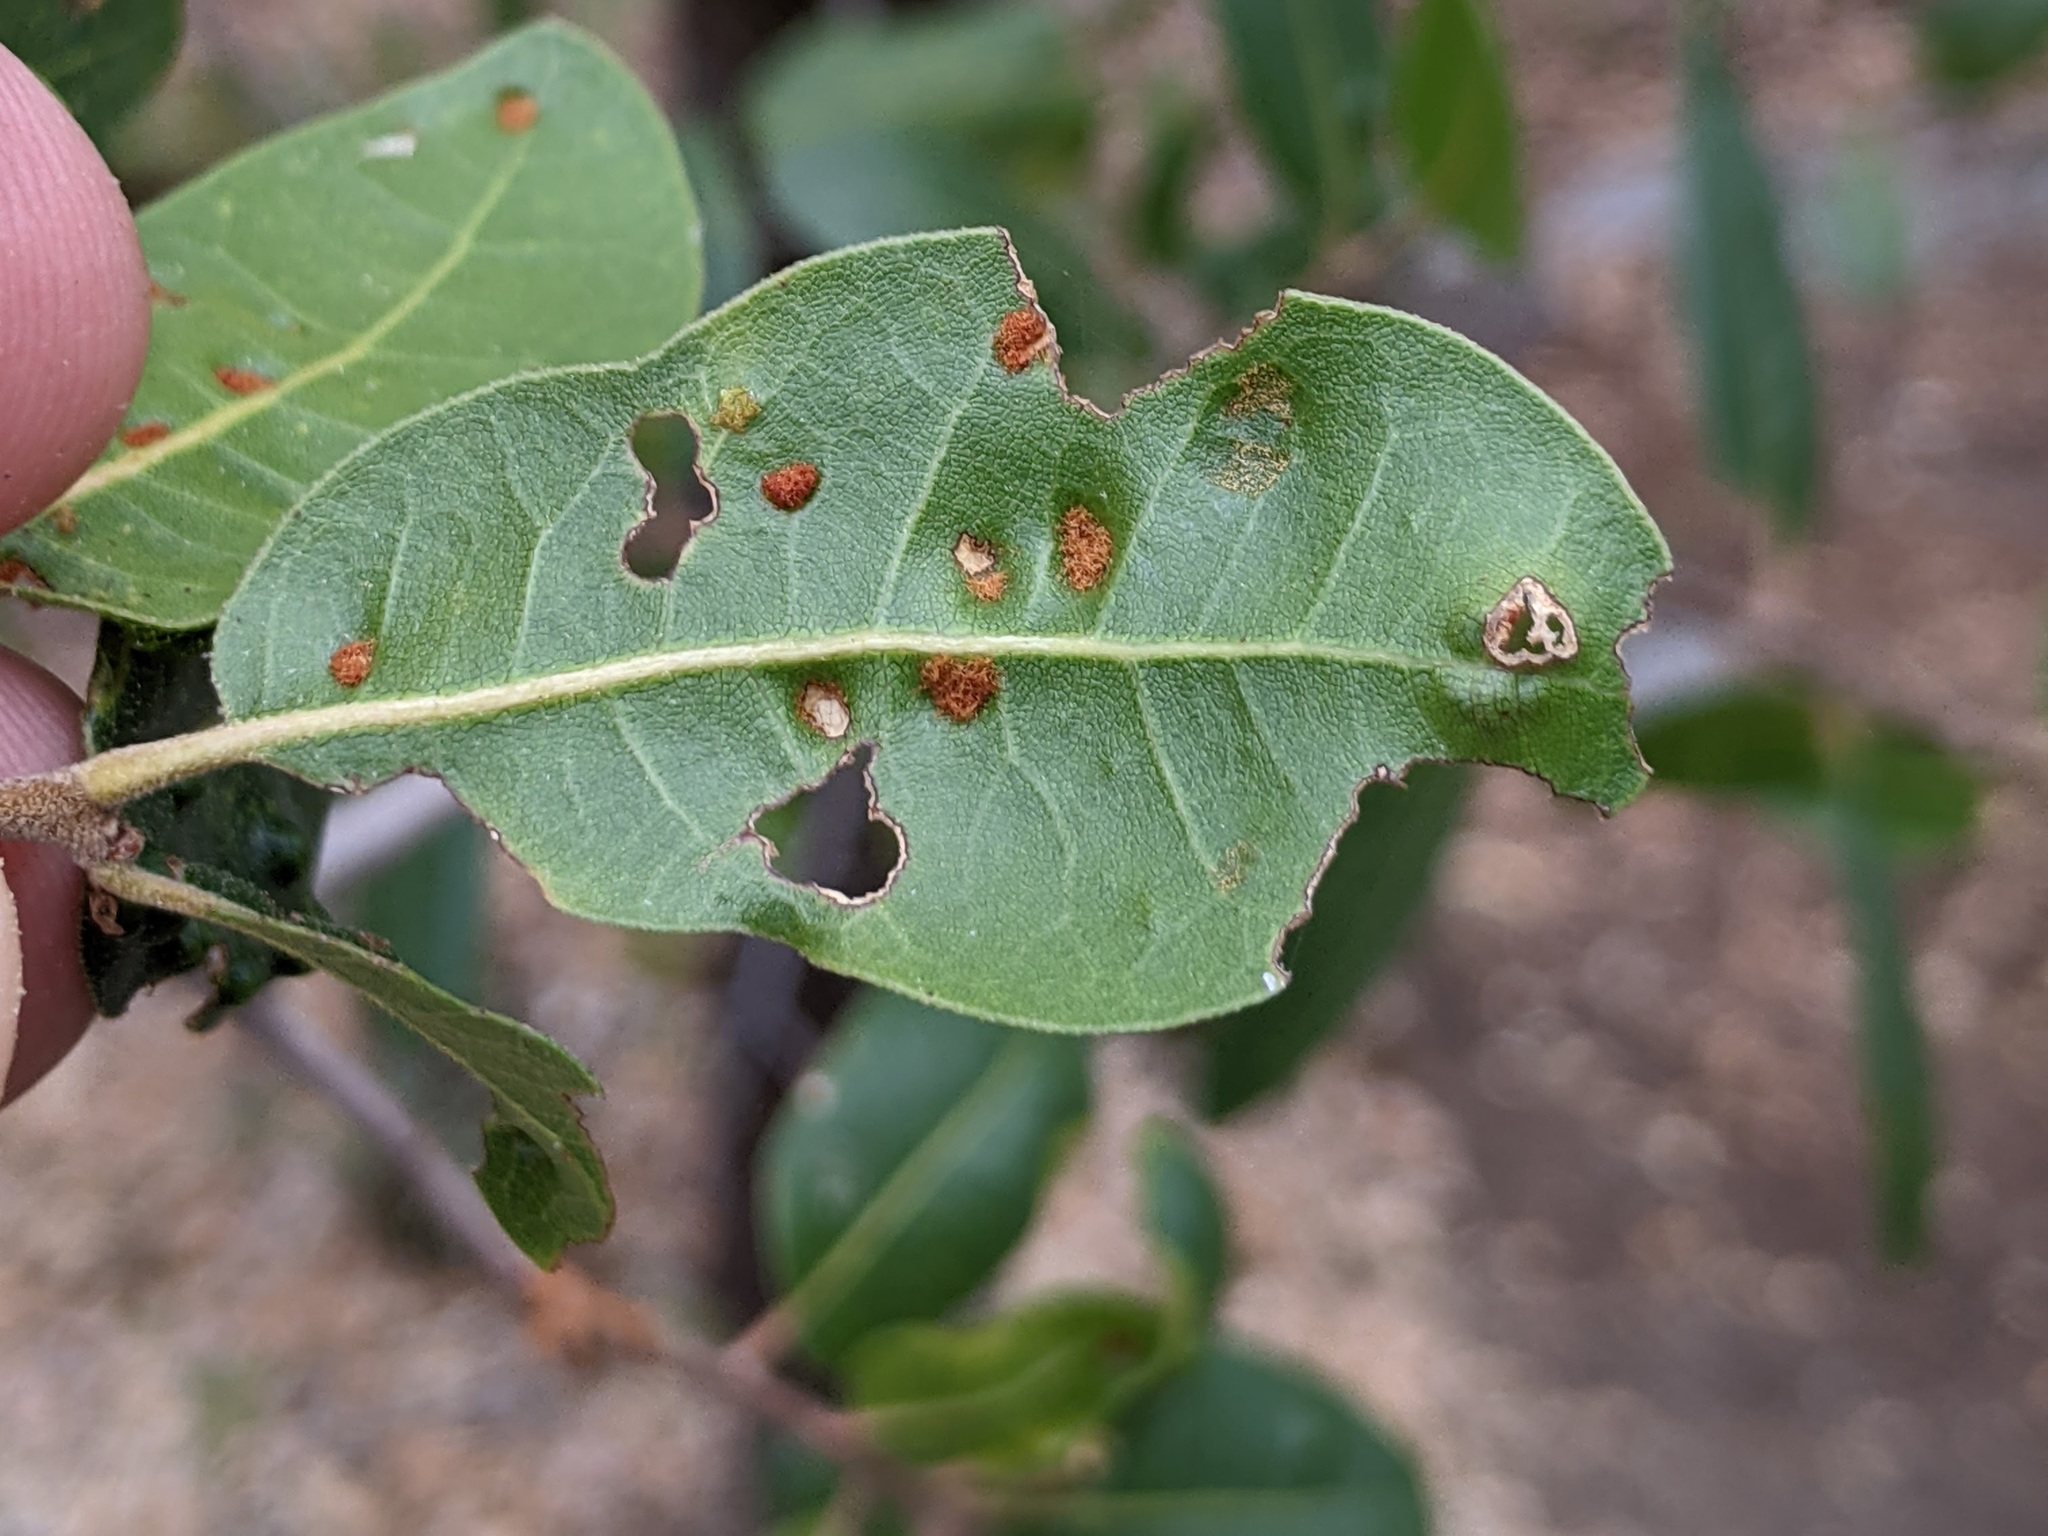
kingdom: Animalia
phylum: Arthropoda
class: Arachnida
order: Trombidiformes
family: Eriophyidae
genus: Aceria
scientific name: Aceria
